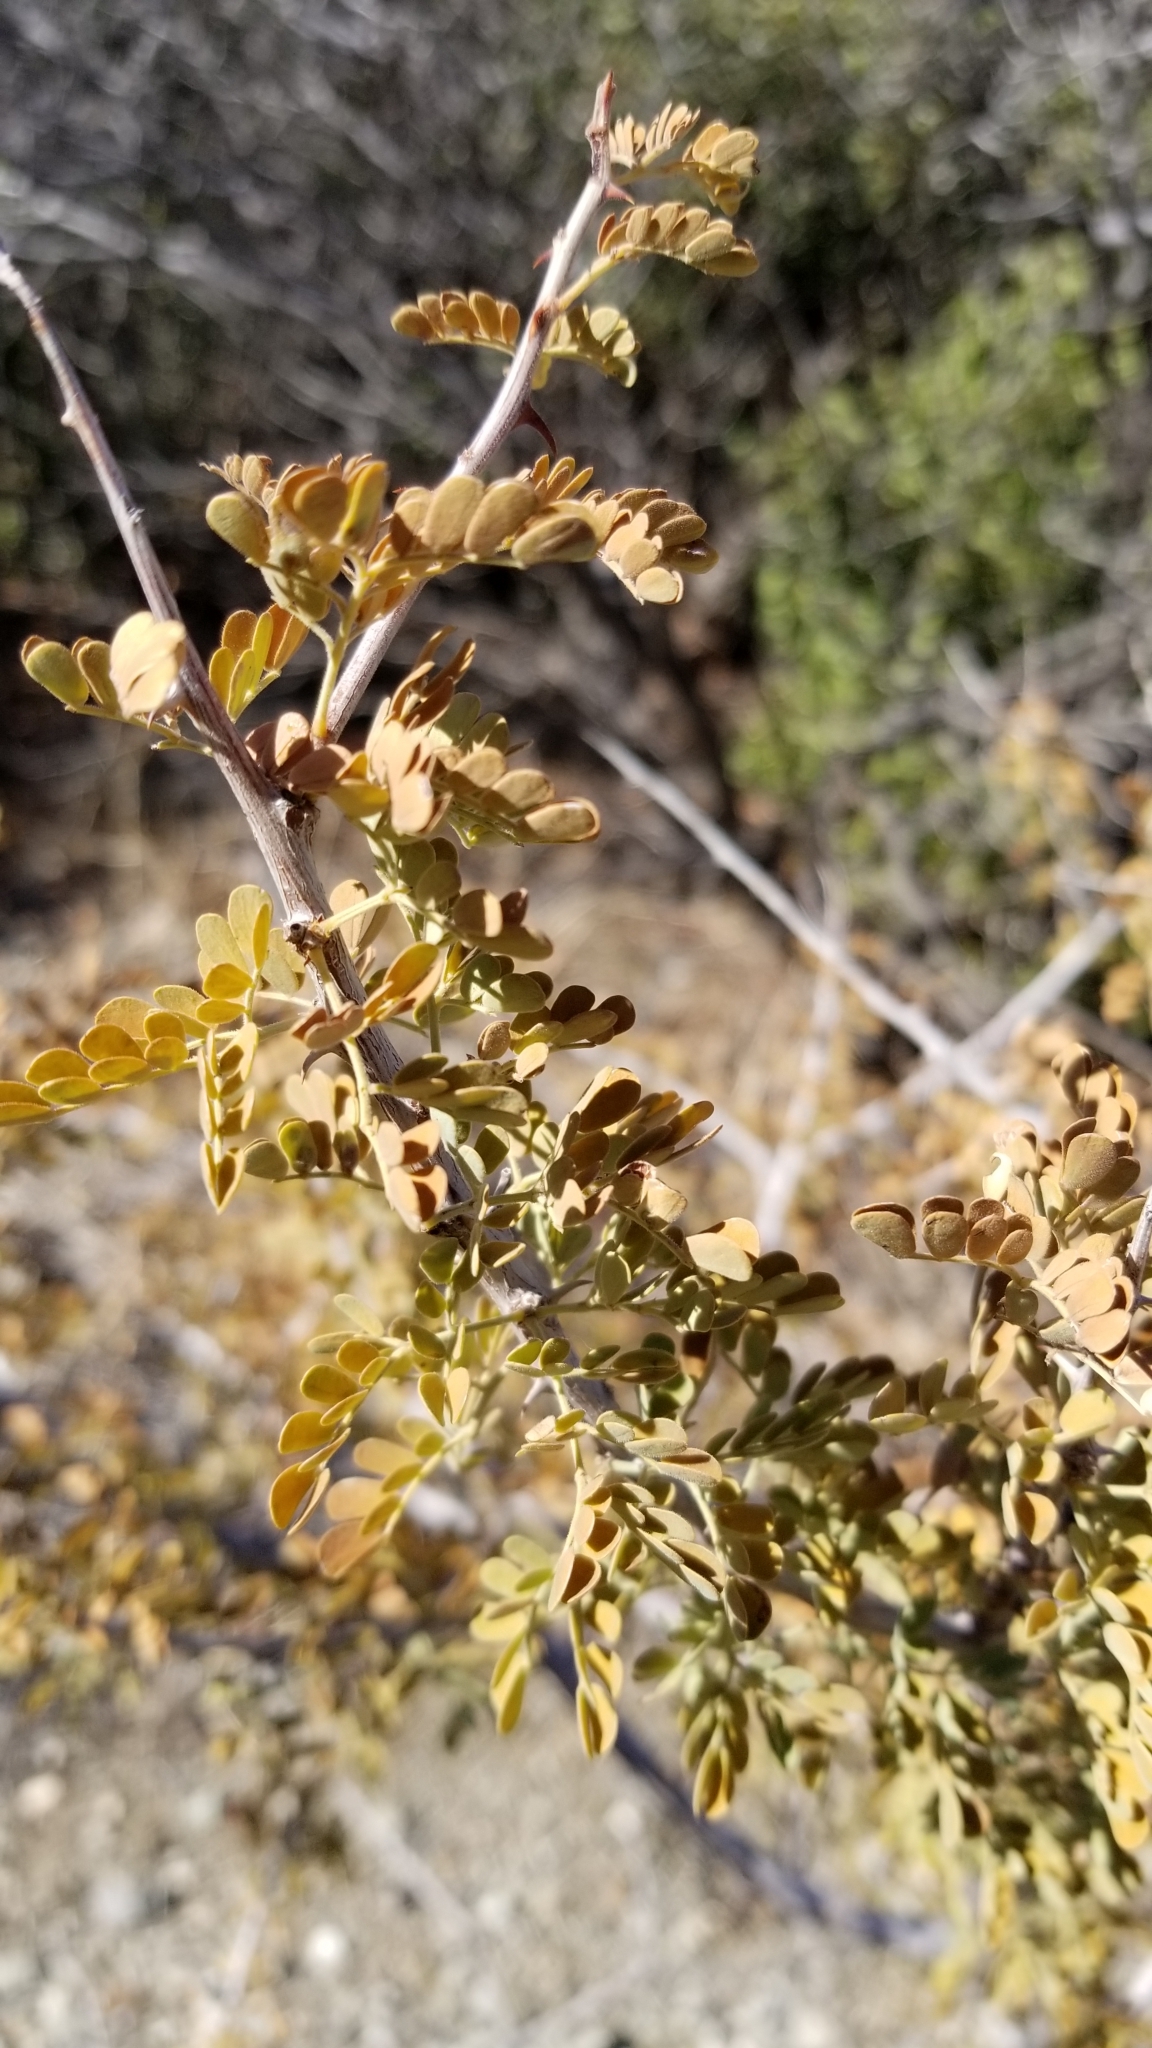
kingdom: Plantae
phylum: Tracheophyta
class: Magnoliopsida
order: Fabales
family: Fabaceae
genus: Senegalia
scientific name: Senegalia greggii
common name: Texas-mimosa
